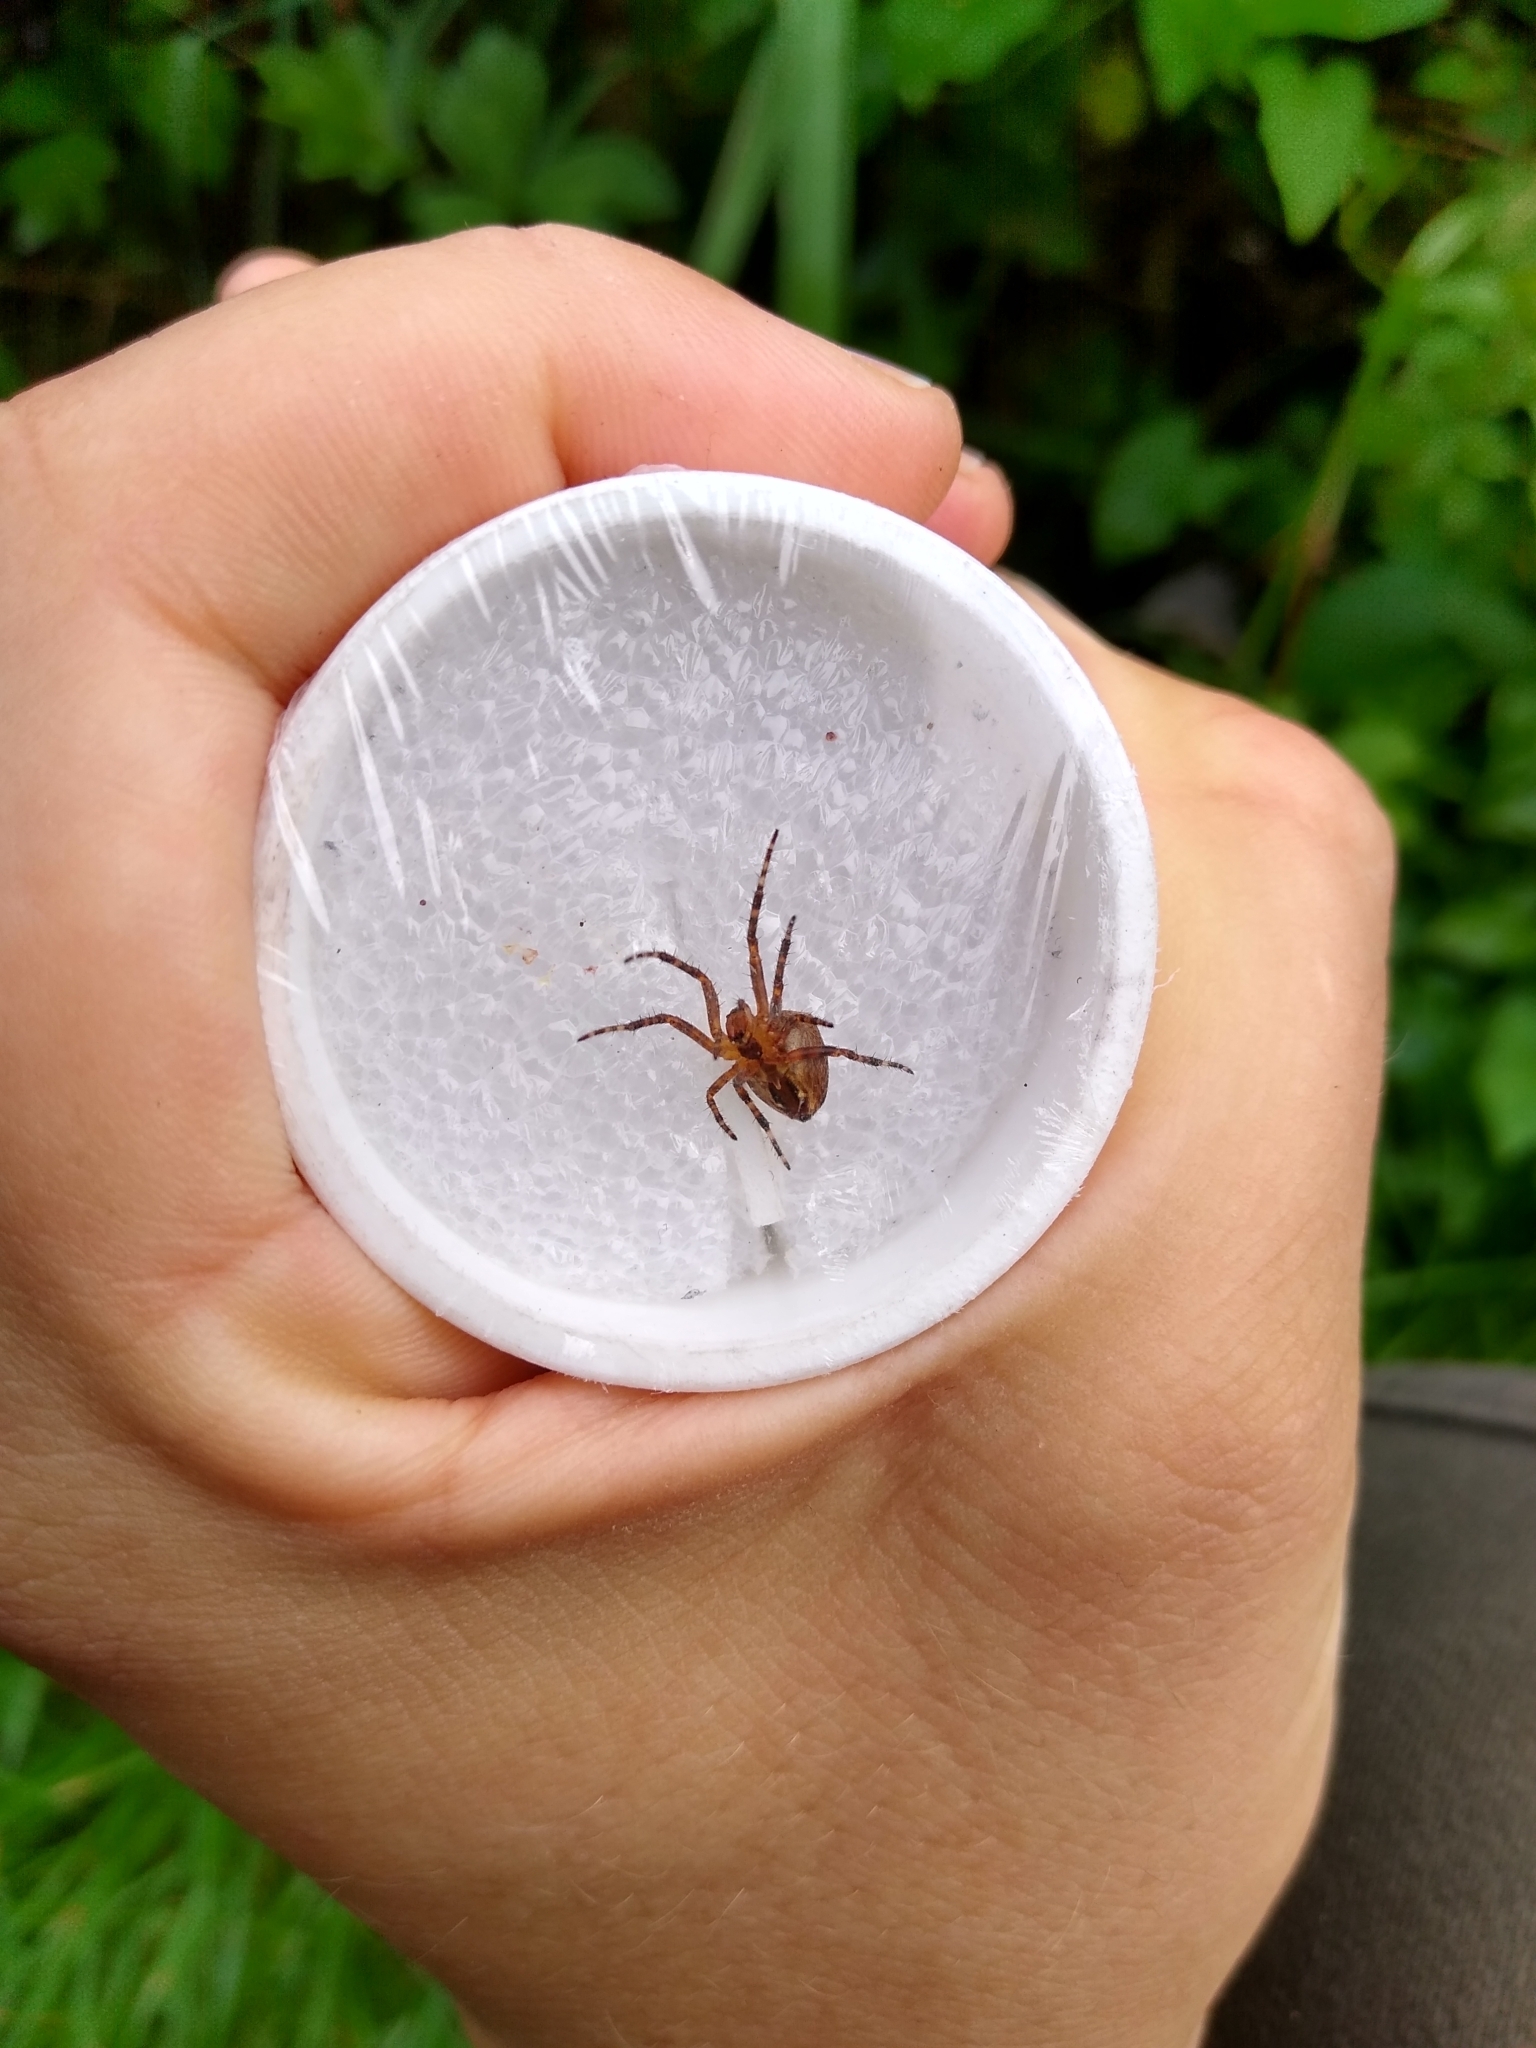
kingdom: Animalia
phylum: Arthropoda
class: Arachnida
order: Araneae
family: Araneidae
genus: Araneus
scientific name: Araneus diadematus
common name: Cross orbweaver
